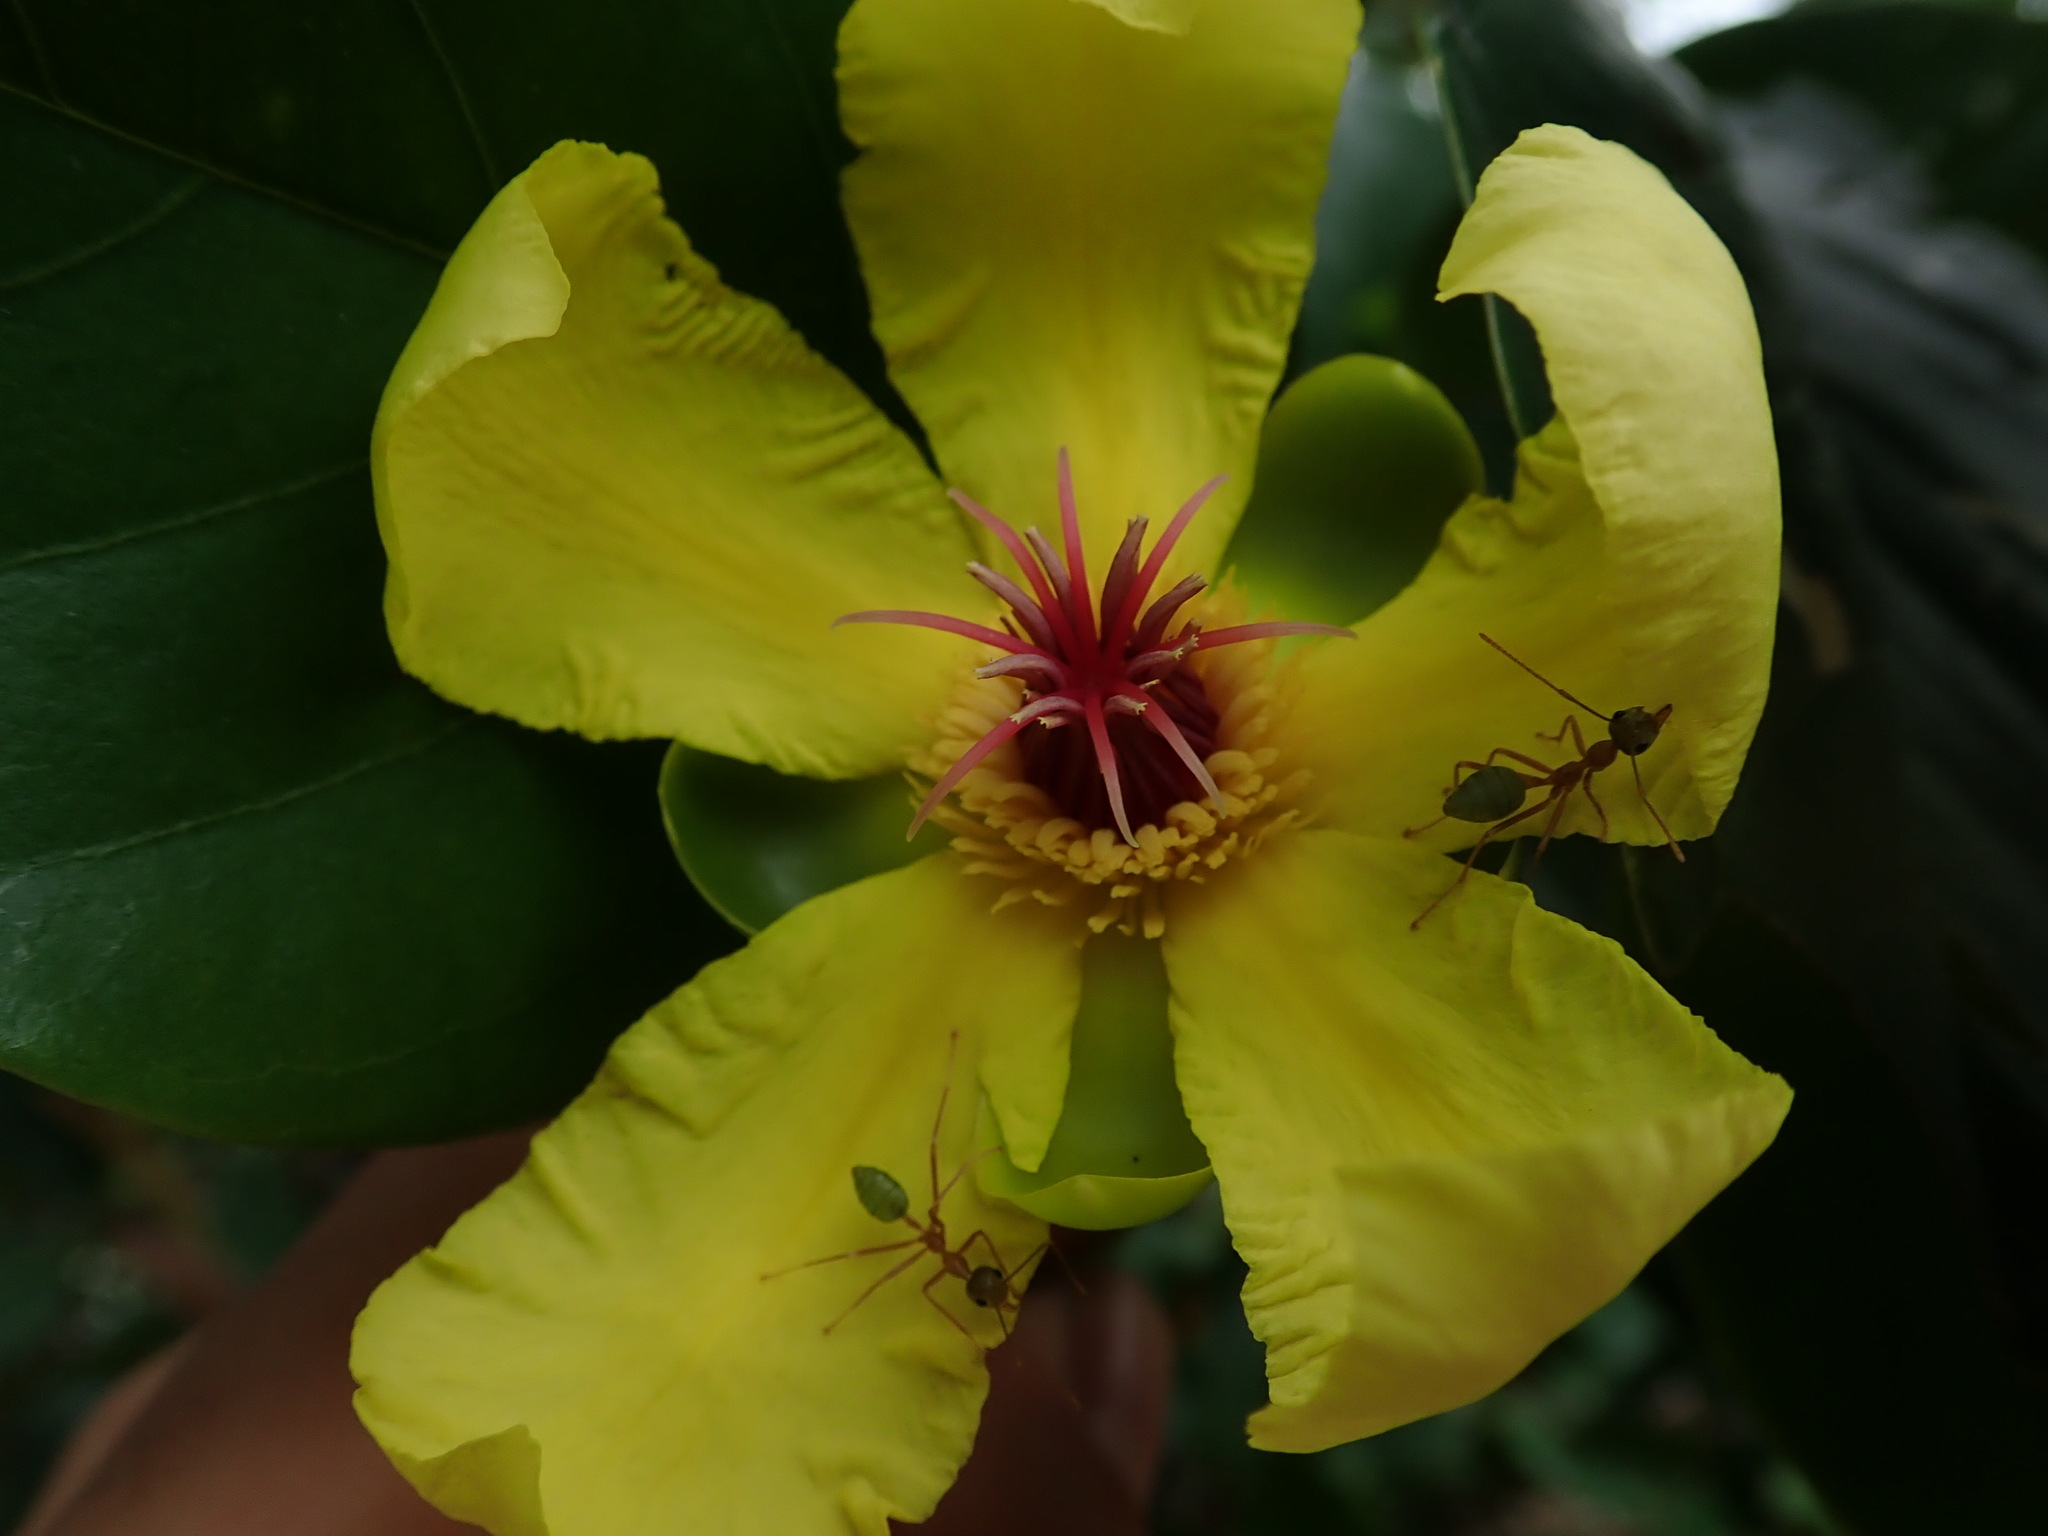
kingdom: Plantae
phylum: Tracheophyta
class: Magnoliopsida
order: Dilleniales
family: Dilleniaceae
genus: Dillenia
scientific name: Dillenia alata
